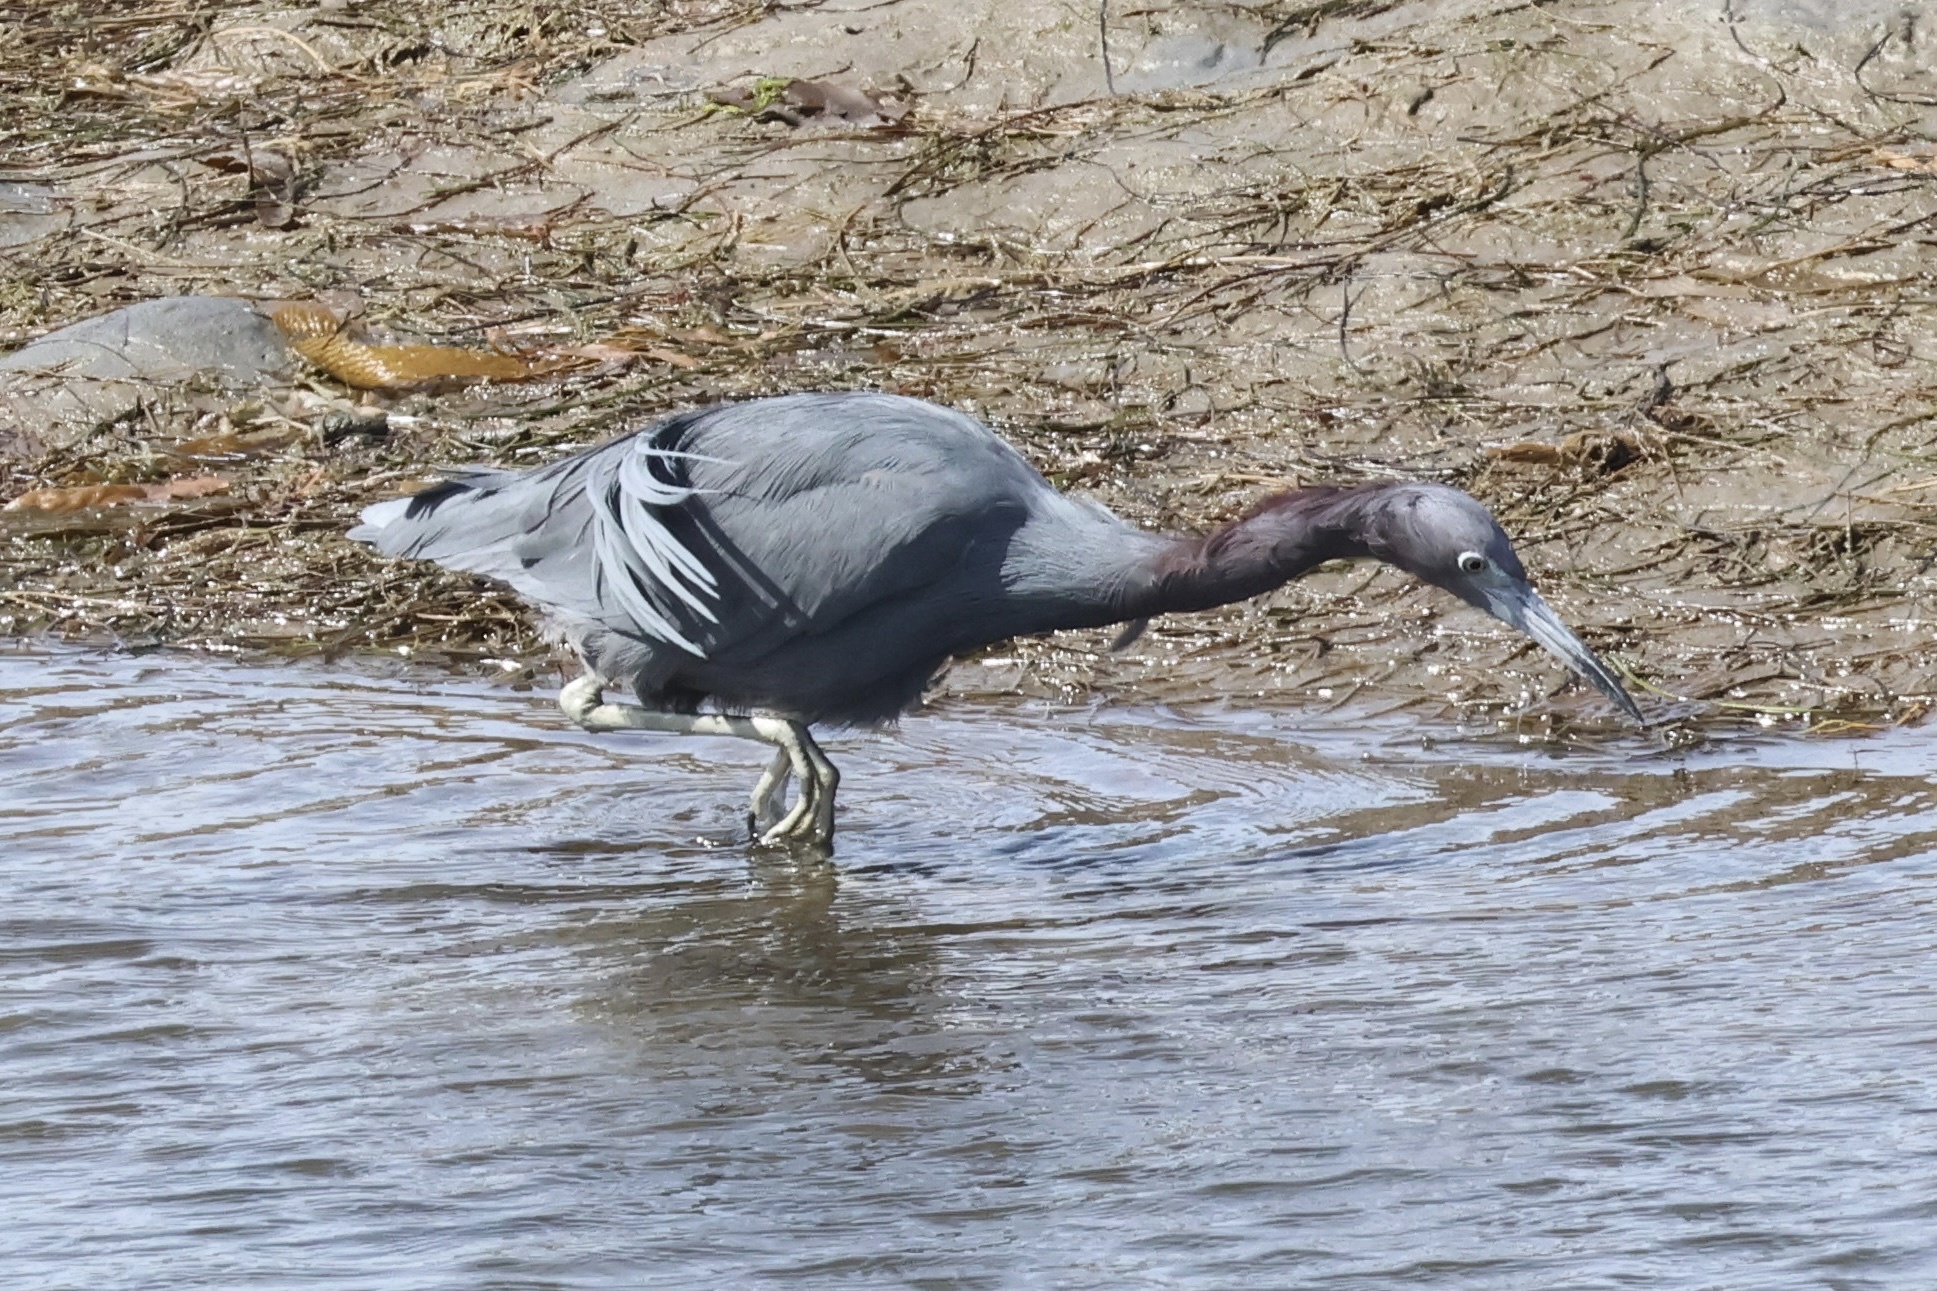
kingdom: Animalia
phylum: Chordata
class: Aves
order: Pelecaniformes
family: Ardeidae
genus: Egretta
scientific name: Egretta caerulea
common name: Little blue heron
